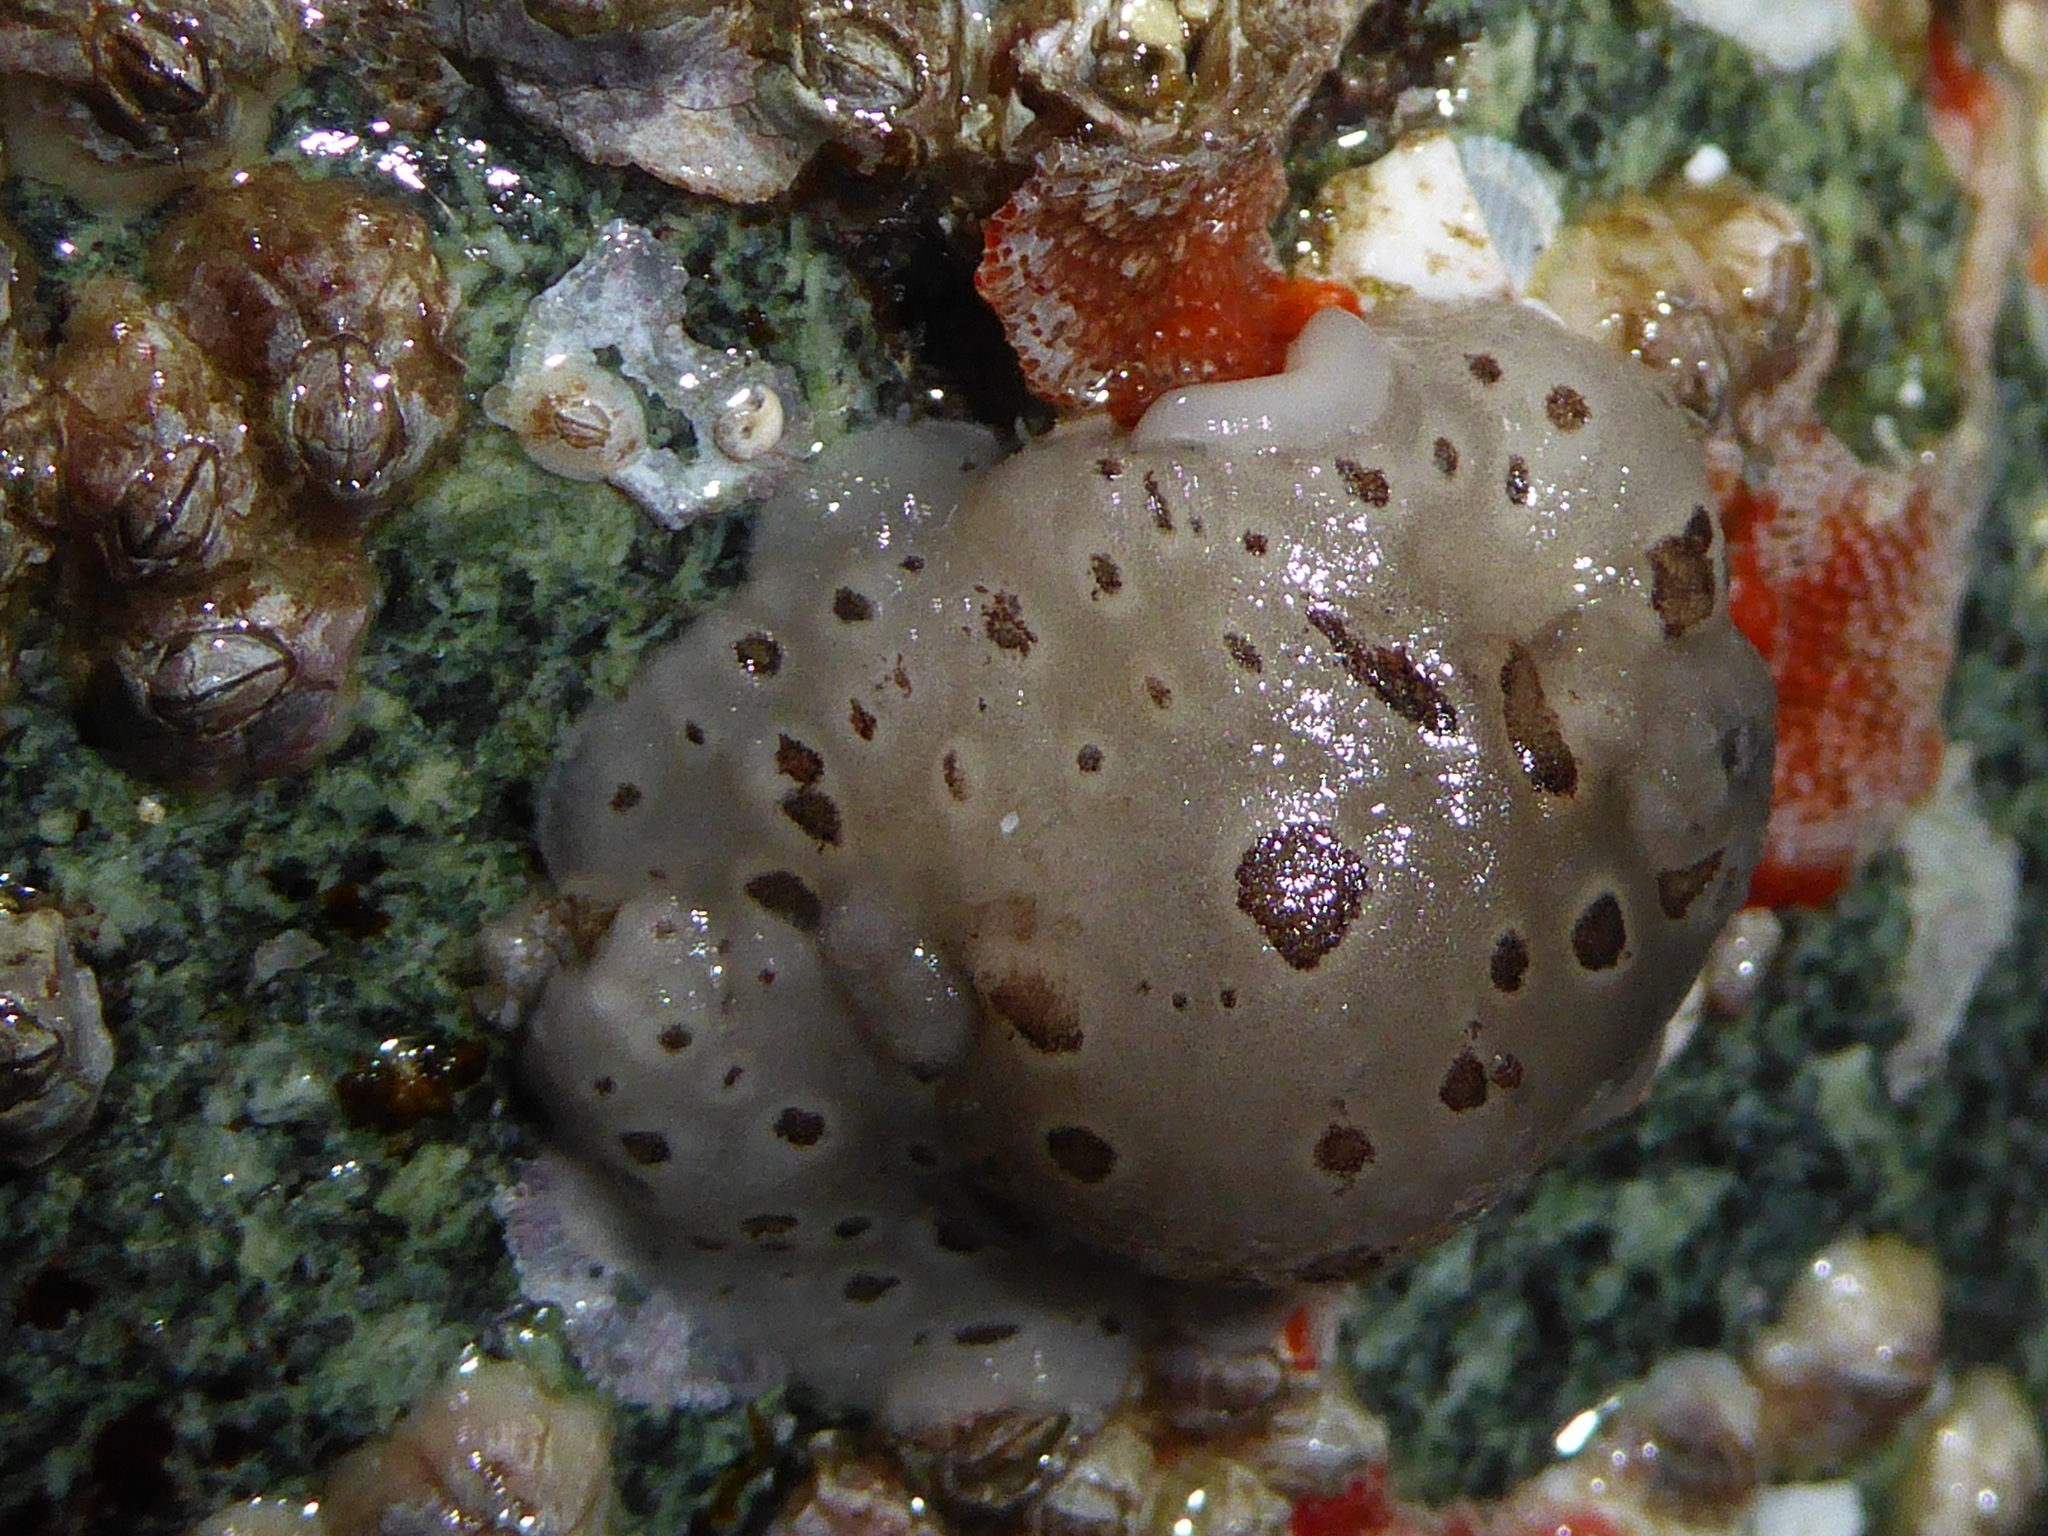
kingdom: Animalia
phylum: Mollusca
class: Gastropoda
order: Nudibranchia
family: Discodorididae
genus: Diaulula
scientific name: Diaulula odonoghuei
